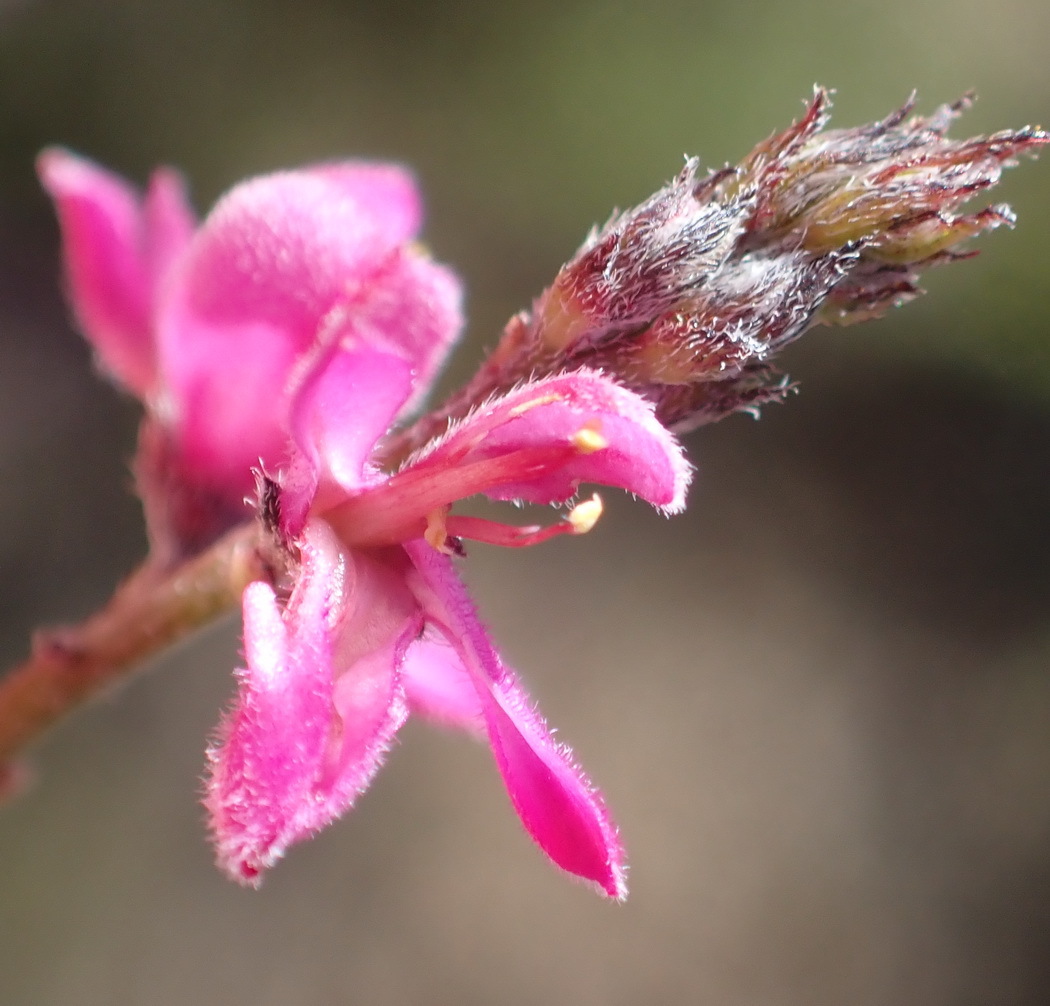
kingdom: Plantae
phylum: Tracheophyta
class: Magnoliopsida
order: Fabales
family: Fabaceae
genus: Indigofera
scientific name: Indigofera declinata
